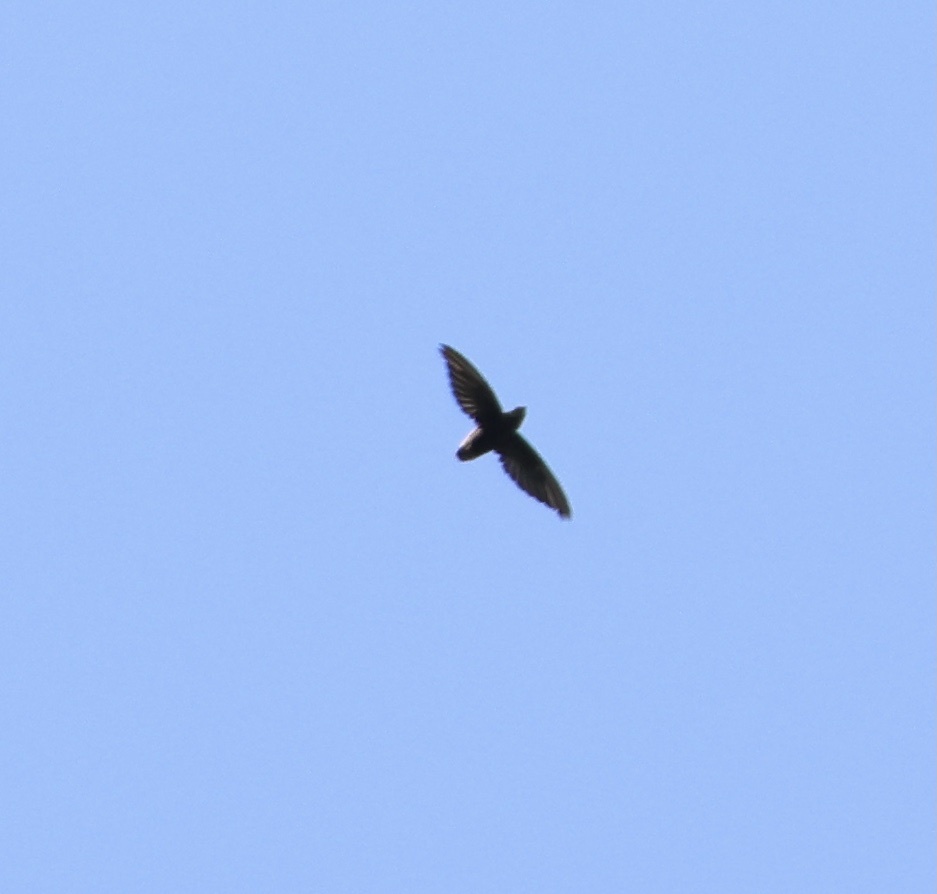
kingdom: Animalia
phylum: Chordata
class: Aves
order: Apodiformes
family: Apodidae
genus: Chaetura
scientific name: Chaetura brachyura
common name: Short-tailed swift
